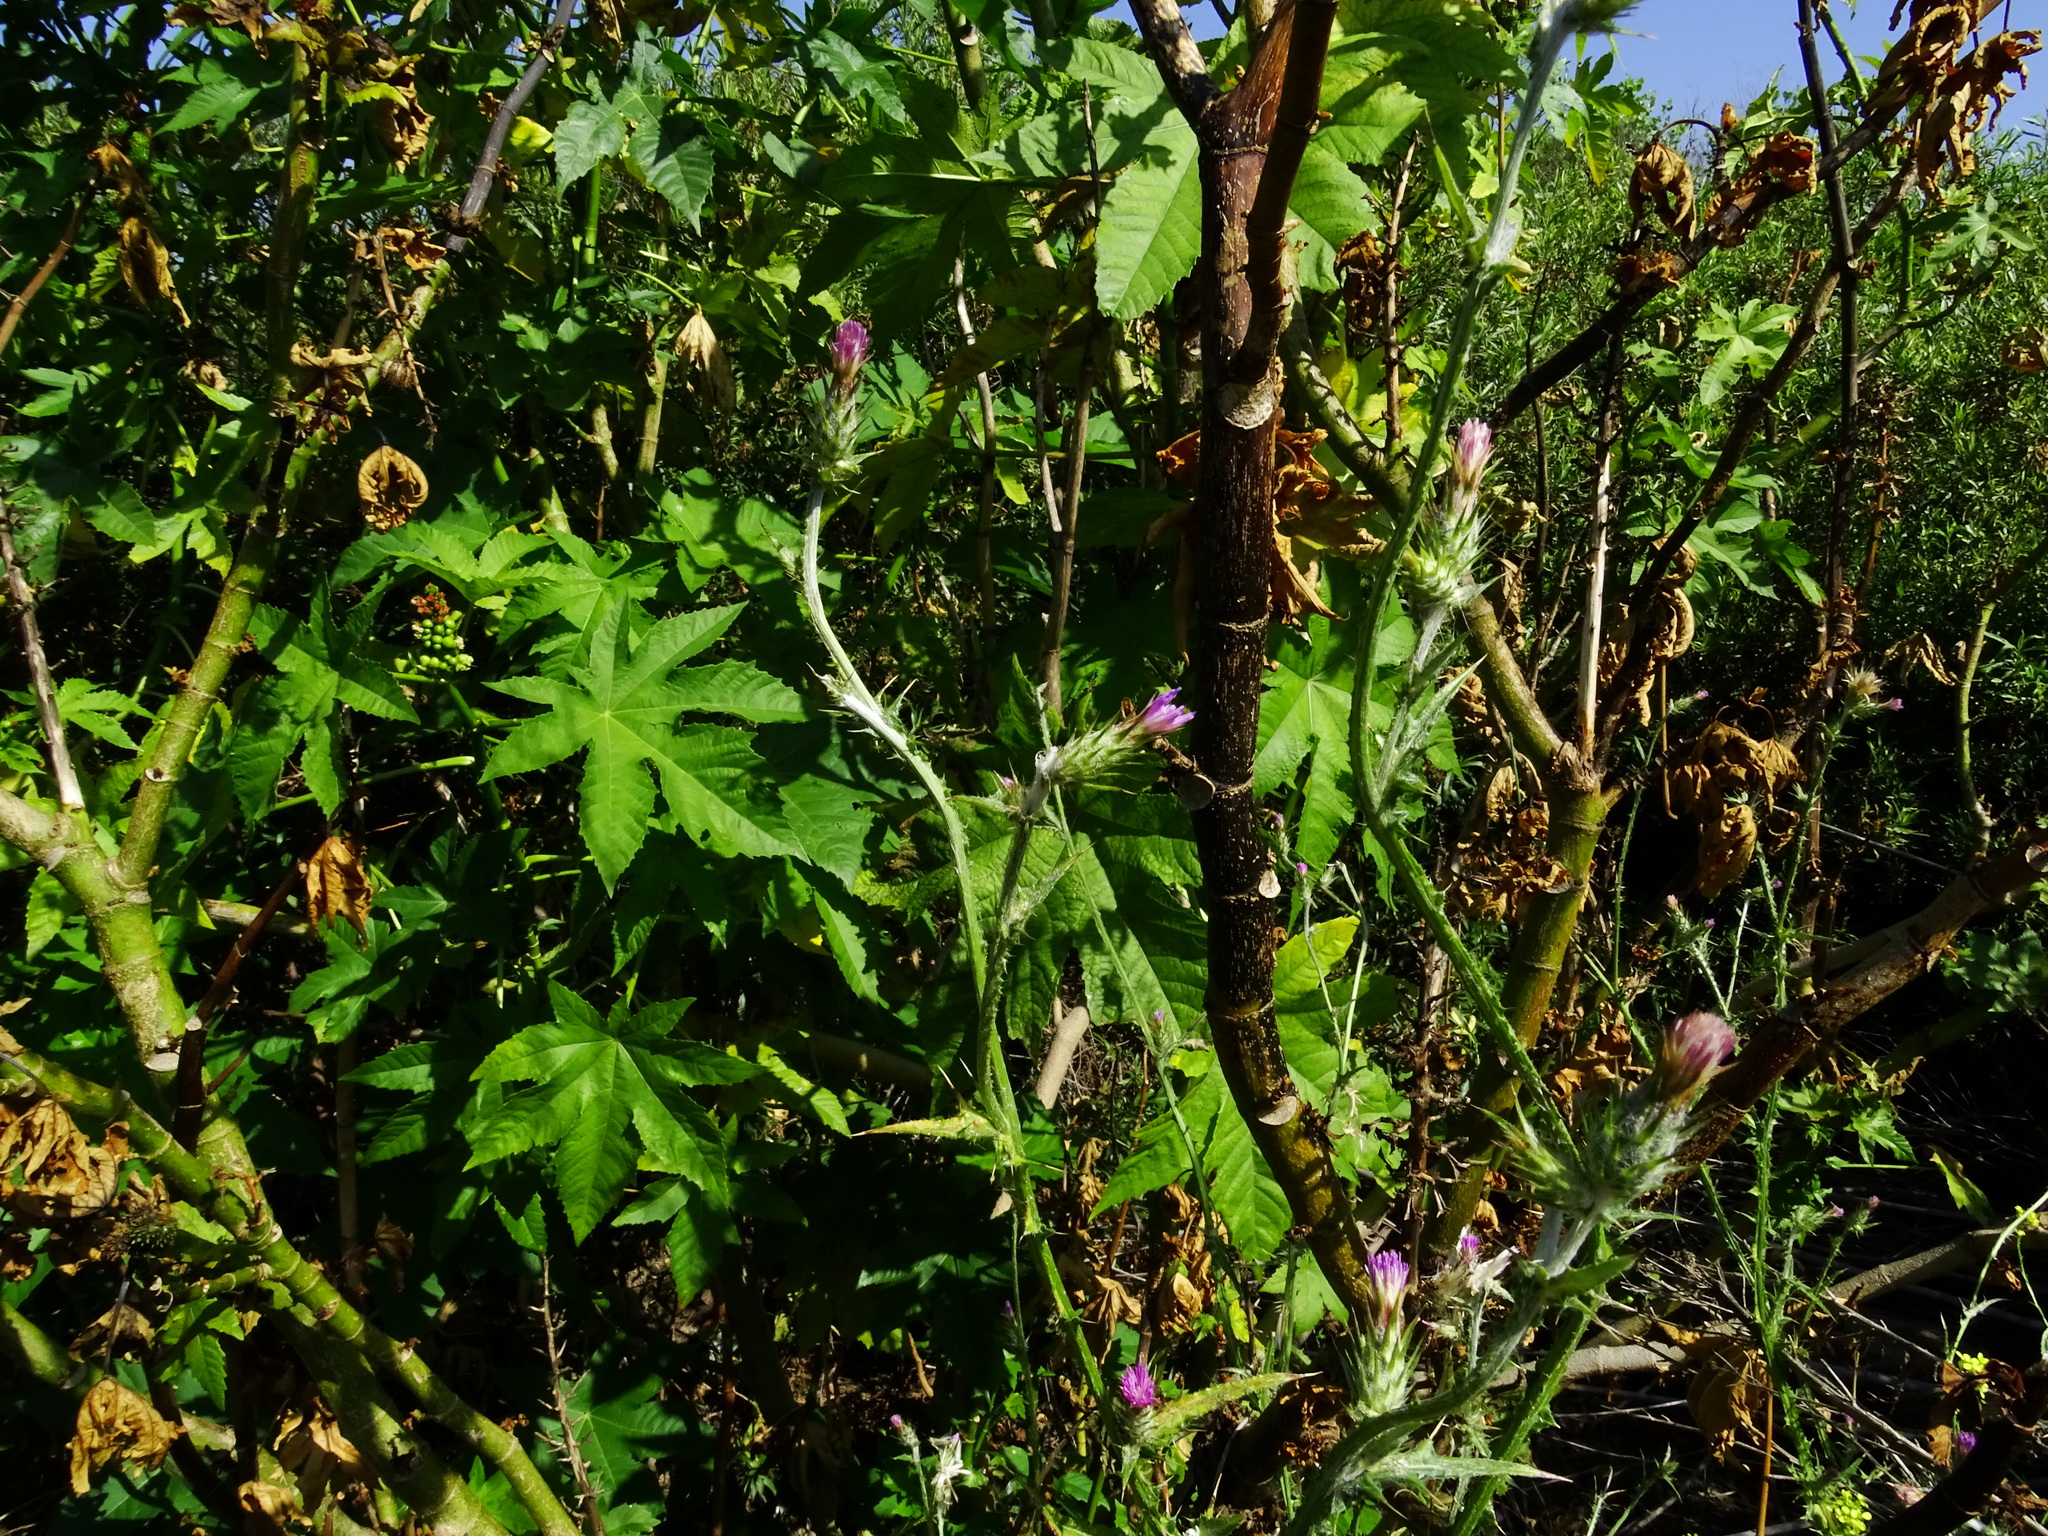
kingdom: Plantae
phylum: Tracheophyta
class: Magnoliopsida
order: Asterales
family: Asteraceae
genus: Carduus
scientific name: Carduus pycnocephalus
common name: Plymouth thistle
